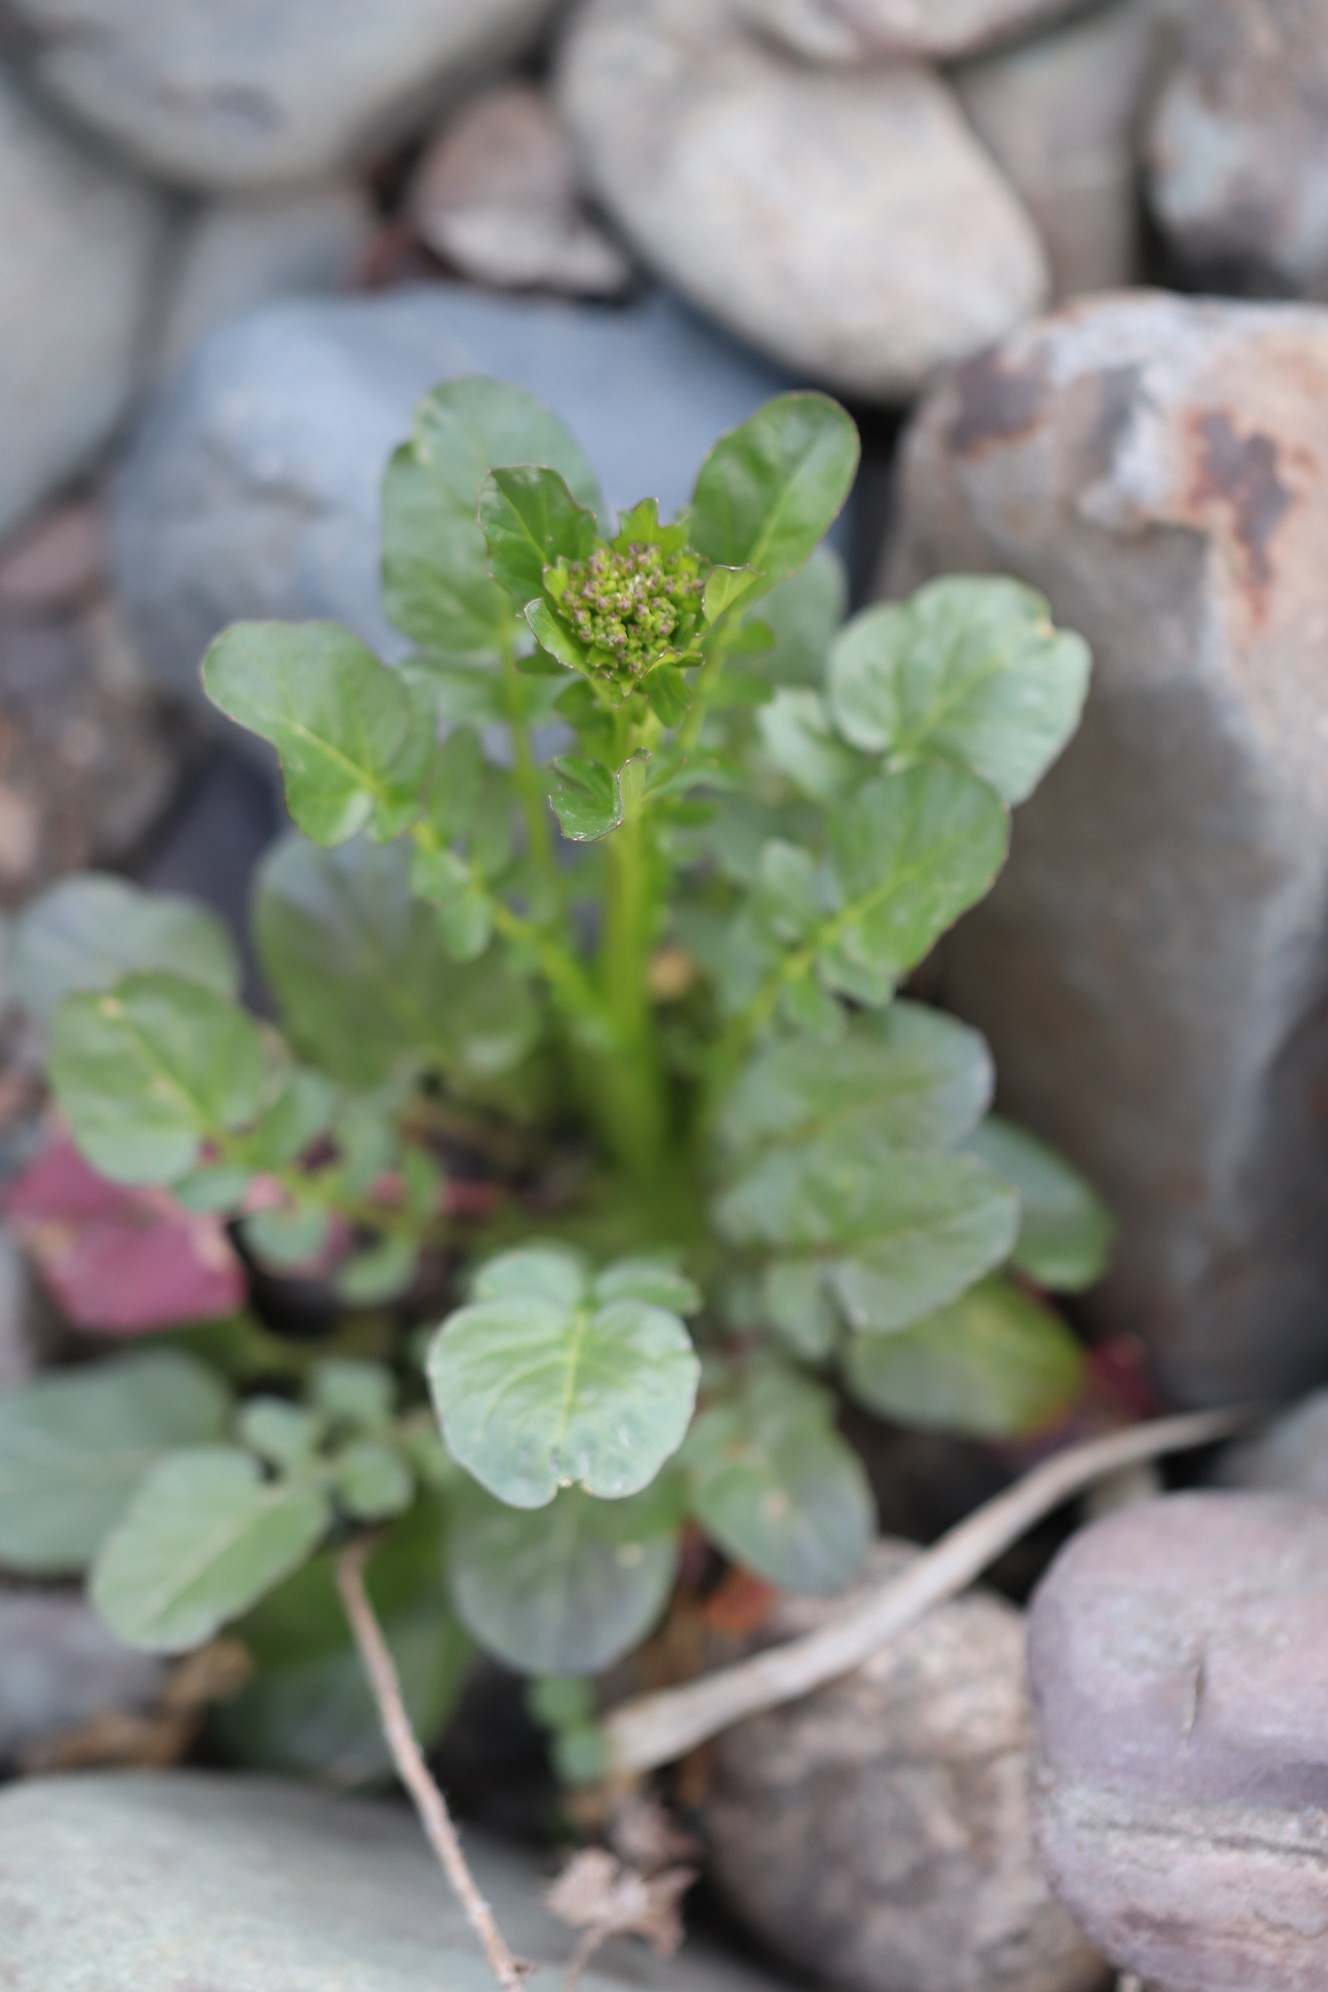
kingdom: Plantae
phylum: Tracheophyta
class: Magnoliopsida
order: Brassicales
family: Brassicaceae
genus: Barbarea
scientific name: Barbarea vulgaris
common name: Cressy-greens
